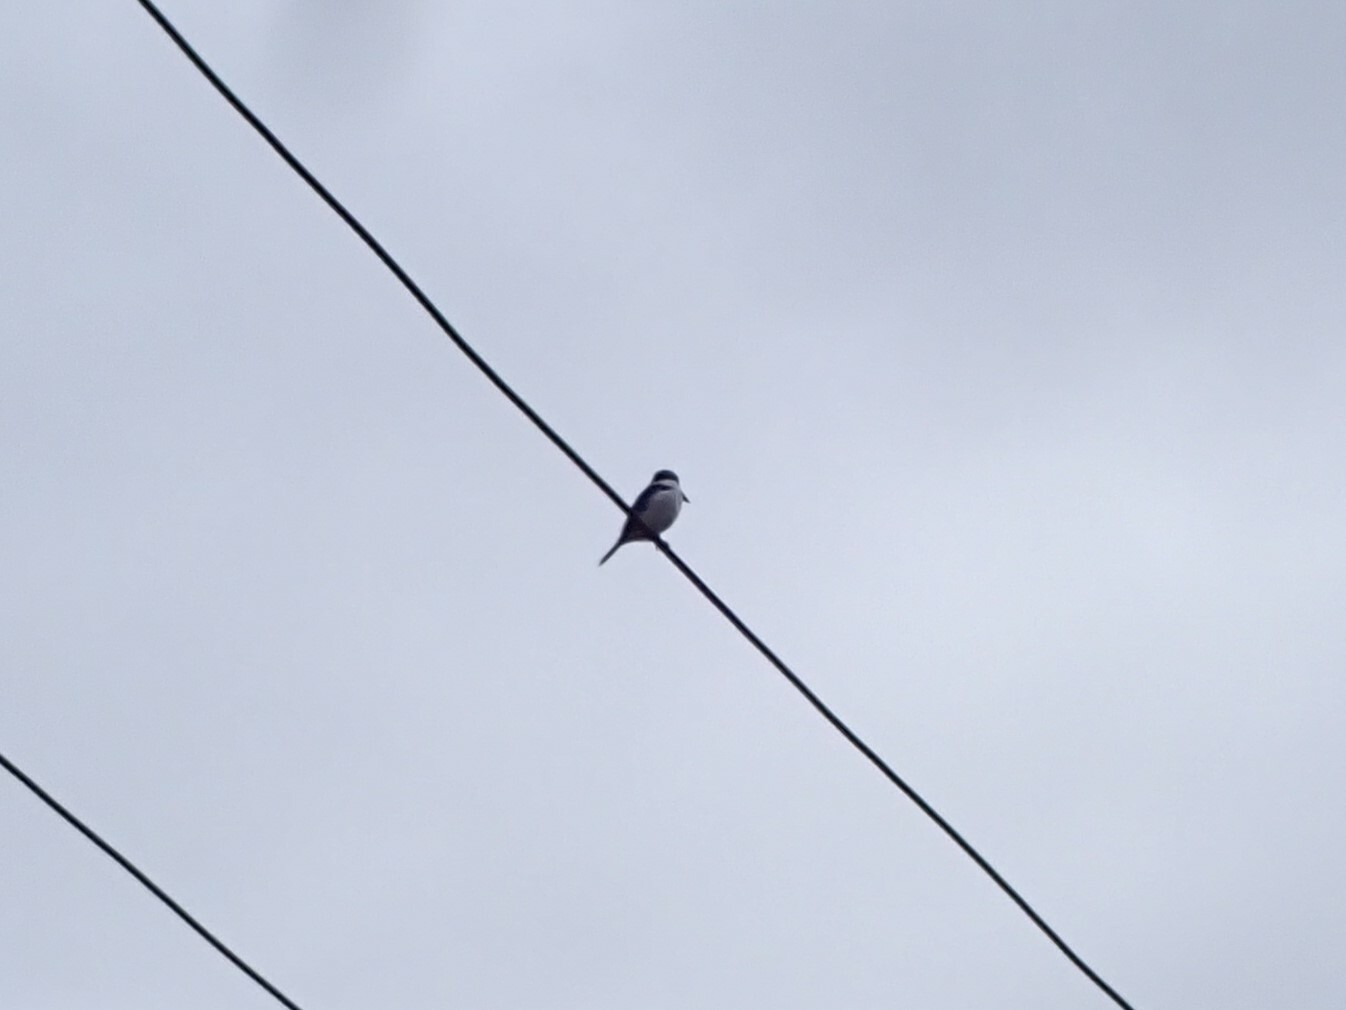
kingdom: Animalia
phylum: Chordata
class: Aves
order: Coraciiformes
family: Alcedinidae
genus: Todiramphus
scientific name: Todiramphus sacer
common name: Pacific kingfisher
